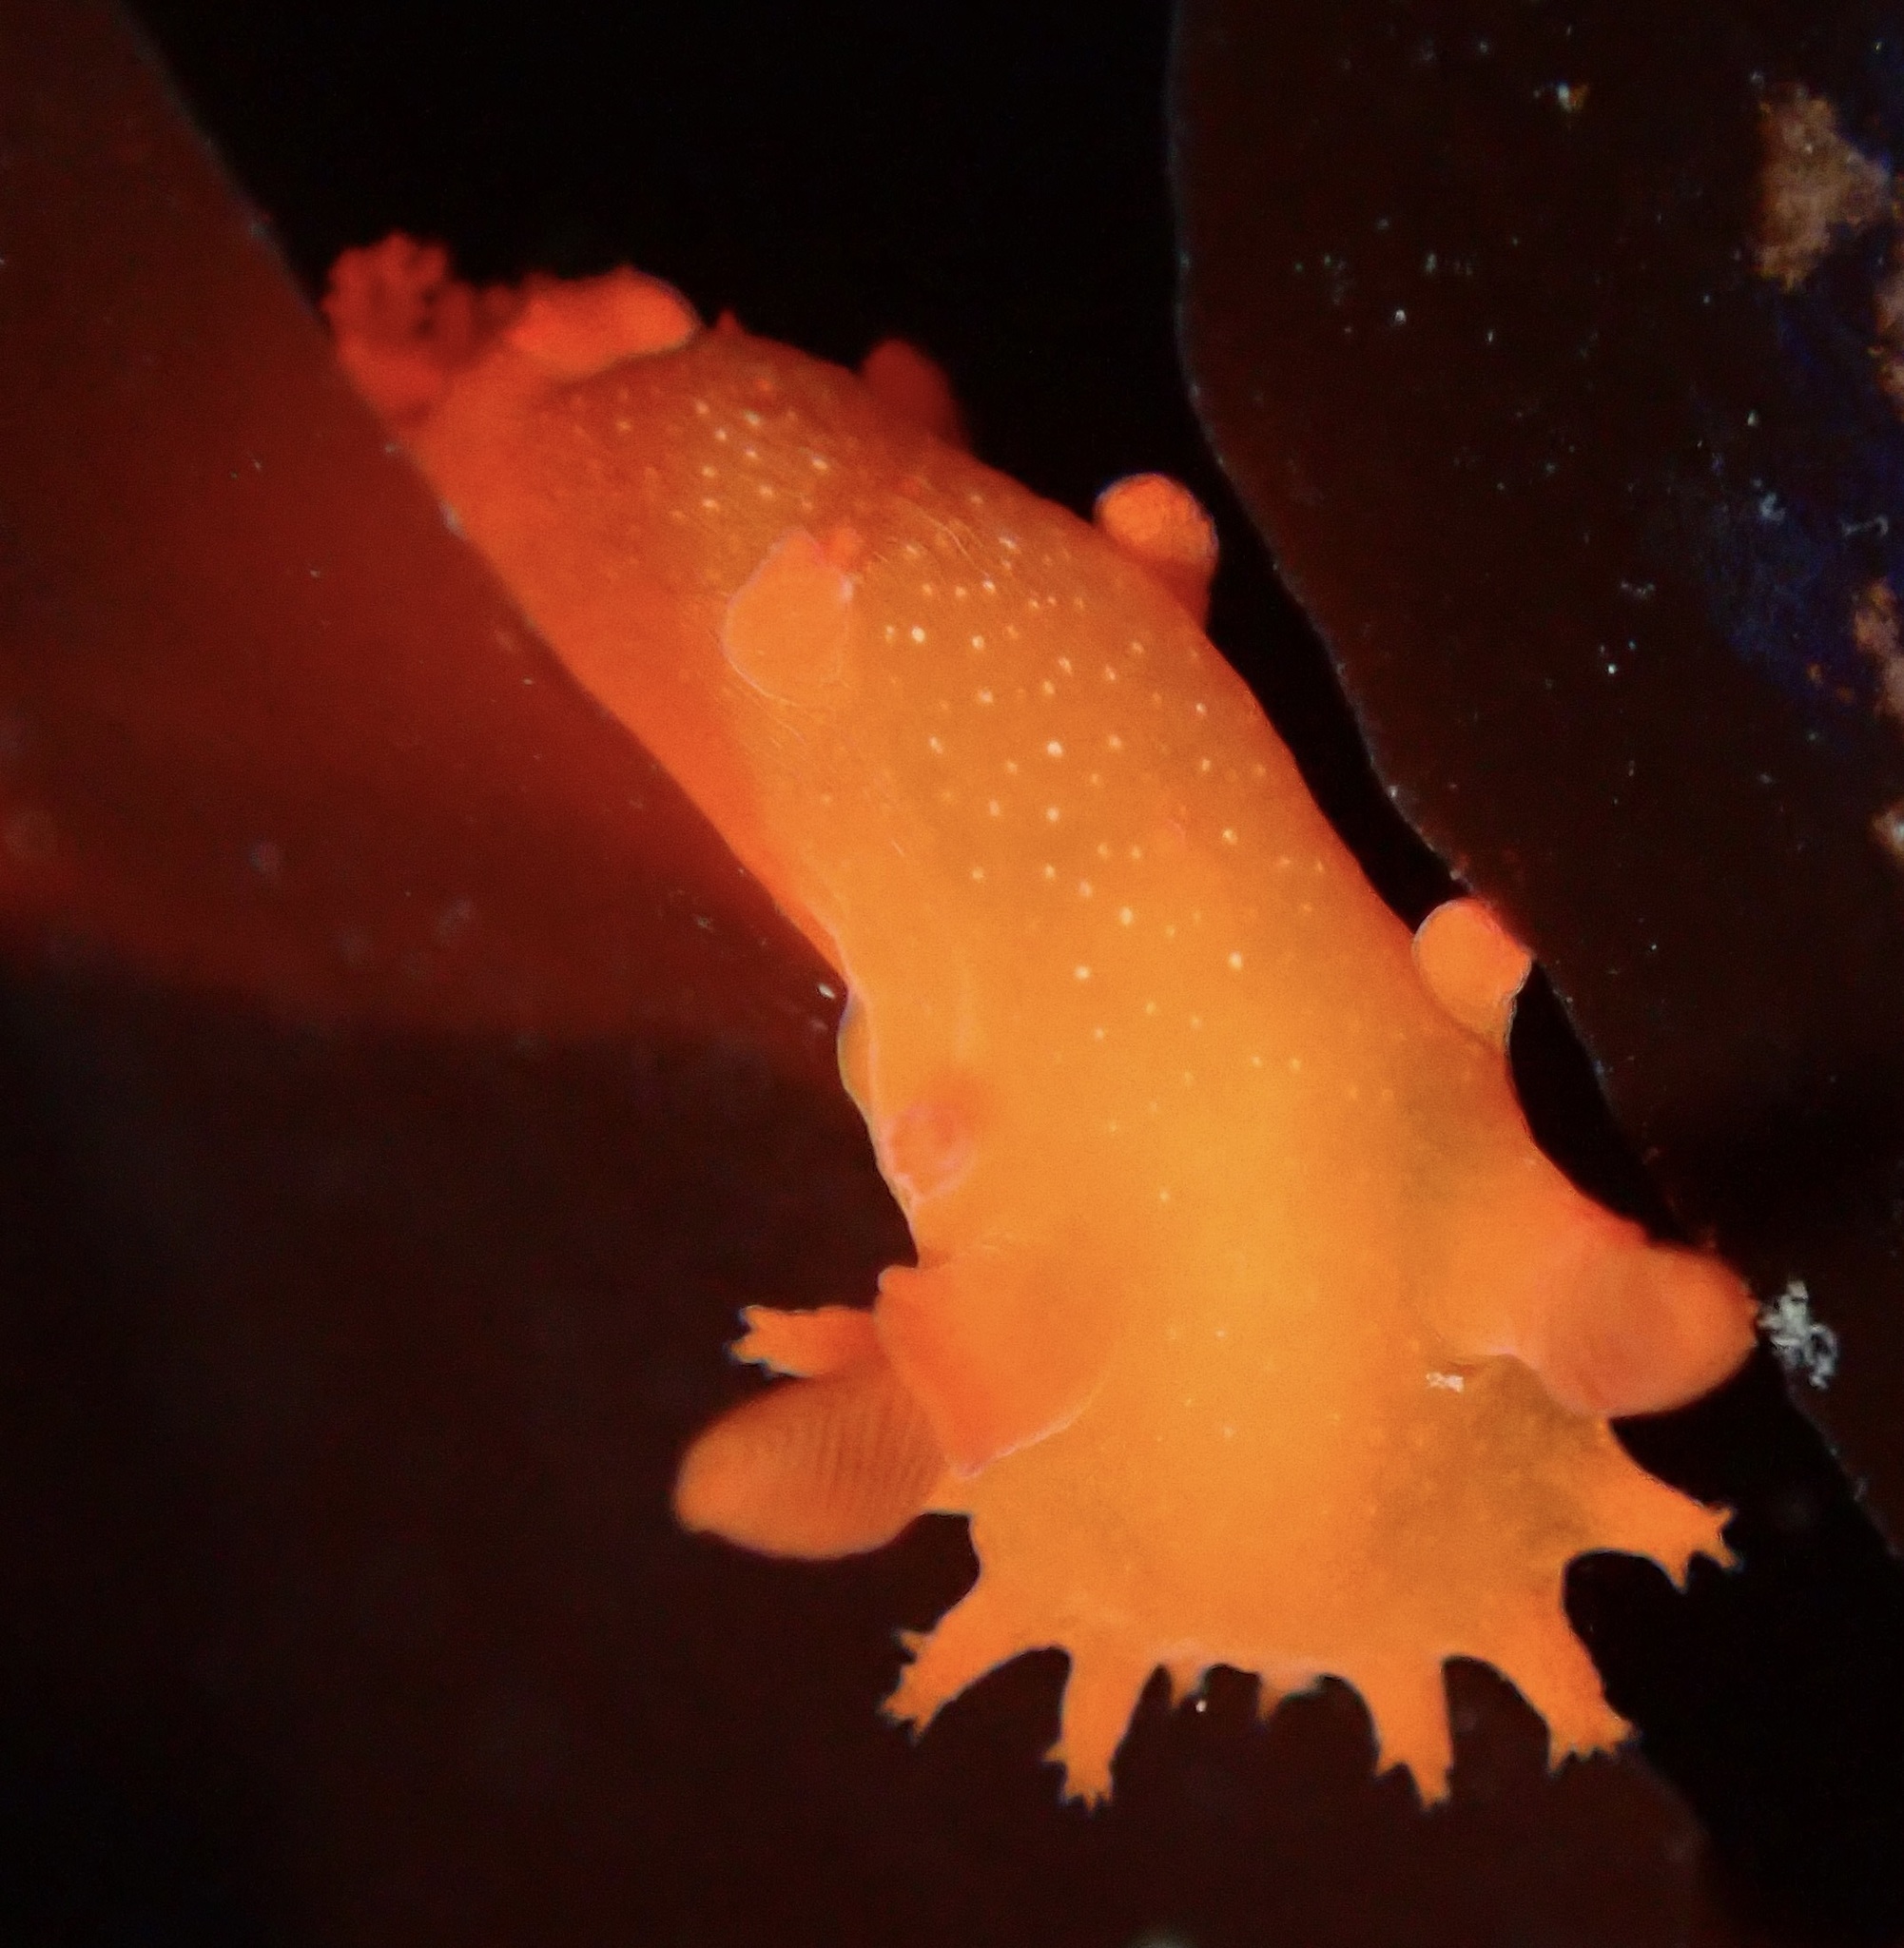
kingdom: Animalia
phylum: Mollusca
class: Gastropoda
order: Nudibranchia
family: Polyceridae
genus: Triopha
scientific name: Triopha maculata
